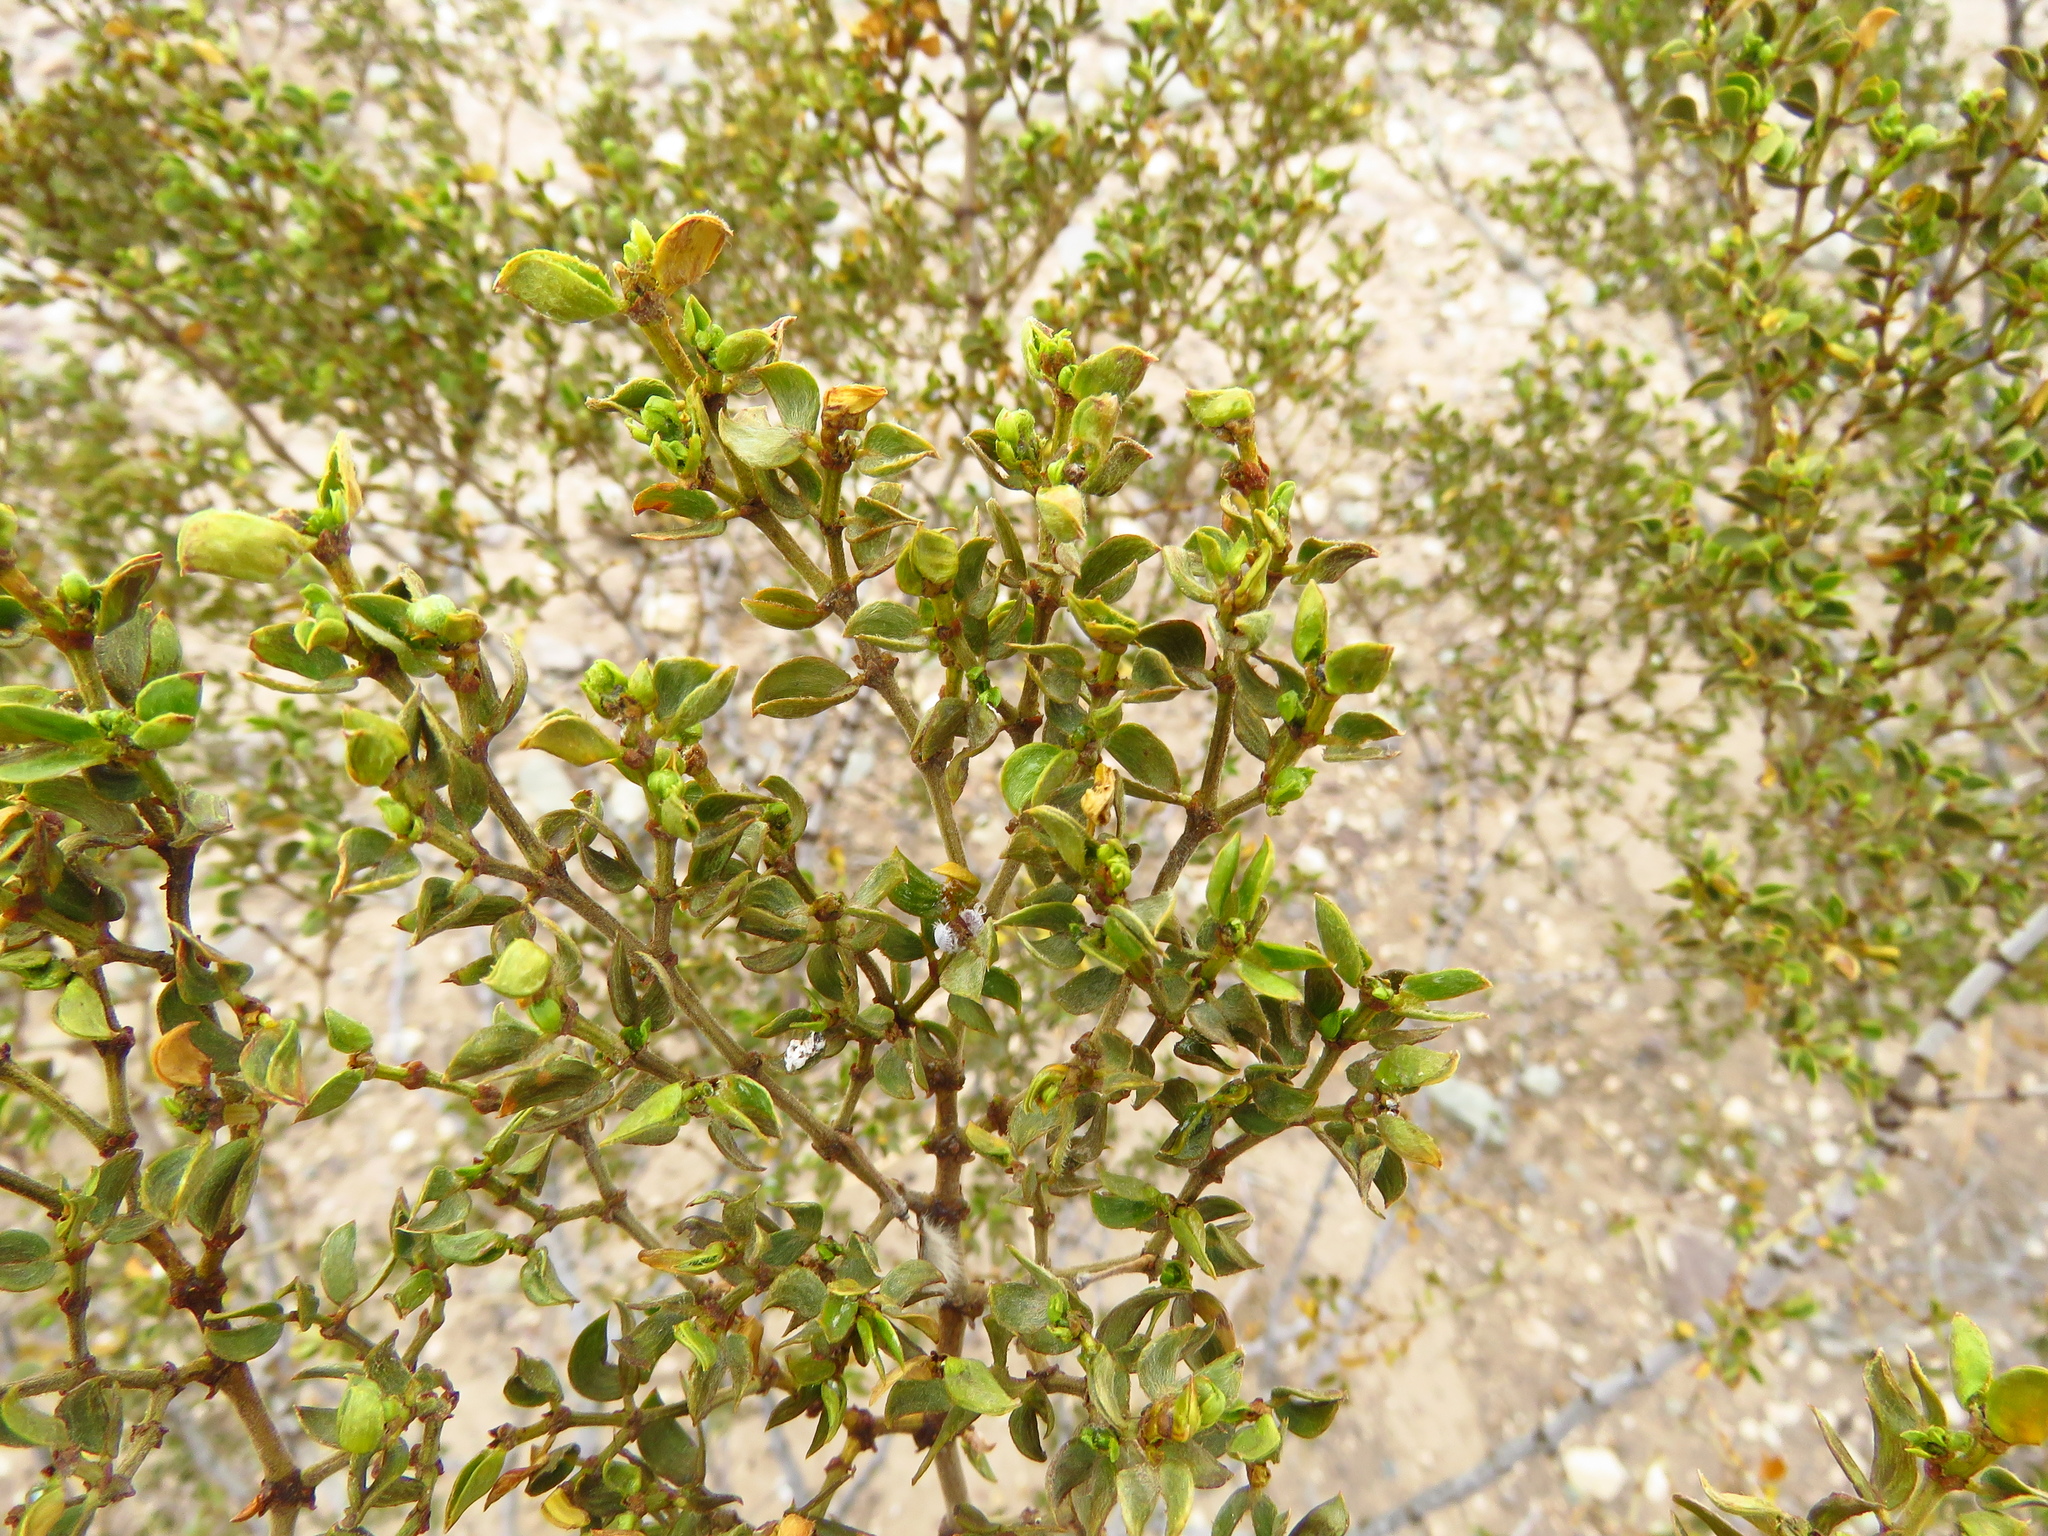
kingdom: Plantae
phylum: Tracheophyta
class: Magnoliopsida
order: Zygophyllales
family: Zygophyllaceae
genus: Larrea
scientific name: Larrea tridentata
